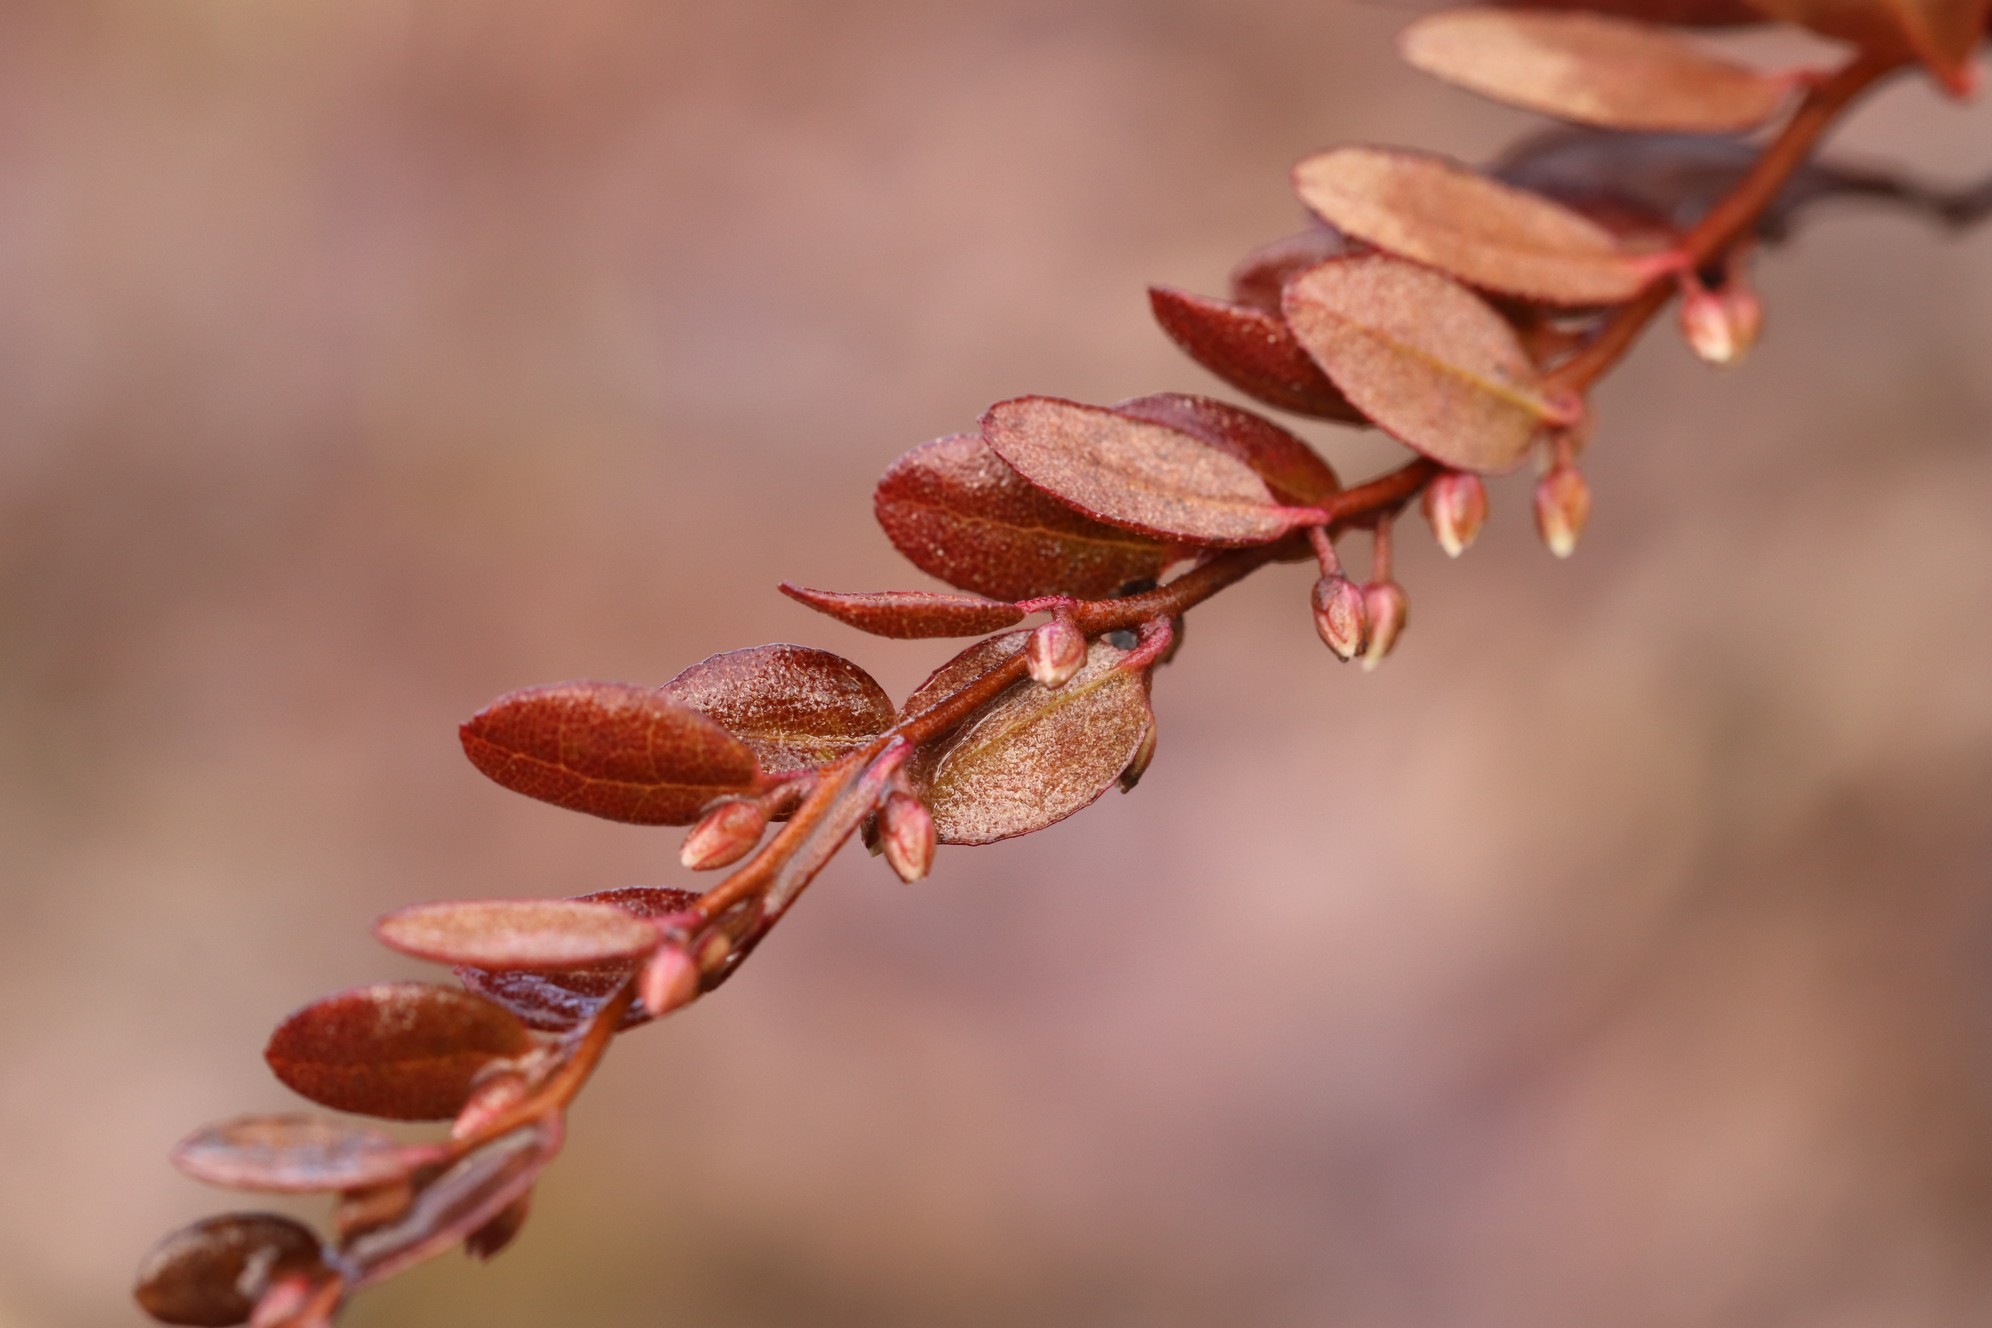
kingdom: Plantae
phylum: Tracheophyta
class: Magnoliopsida
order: Ericales
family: Ericaceae
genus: Chamaedaphne
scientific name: Chamaedaphne calyculata
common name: Leatherleaf
